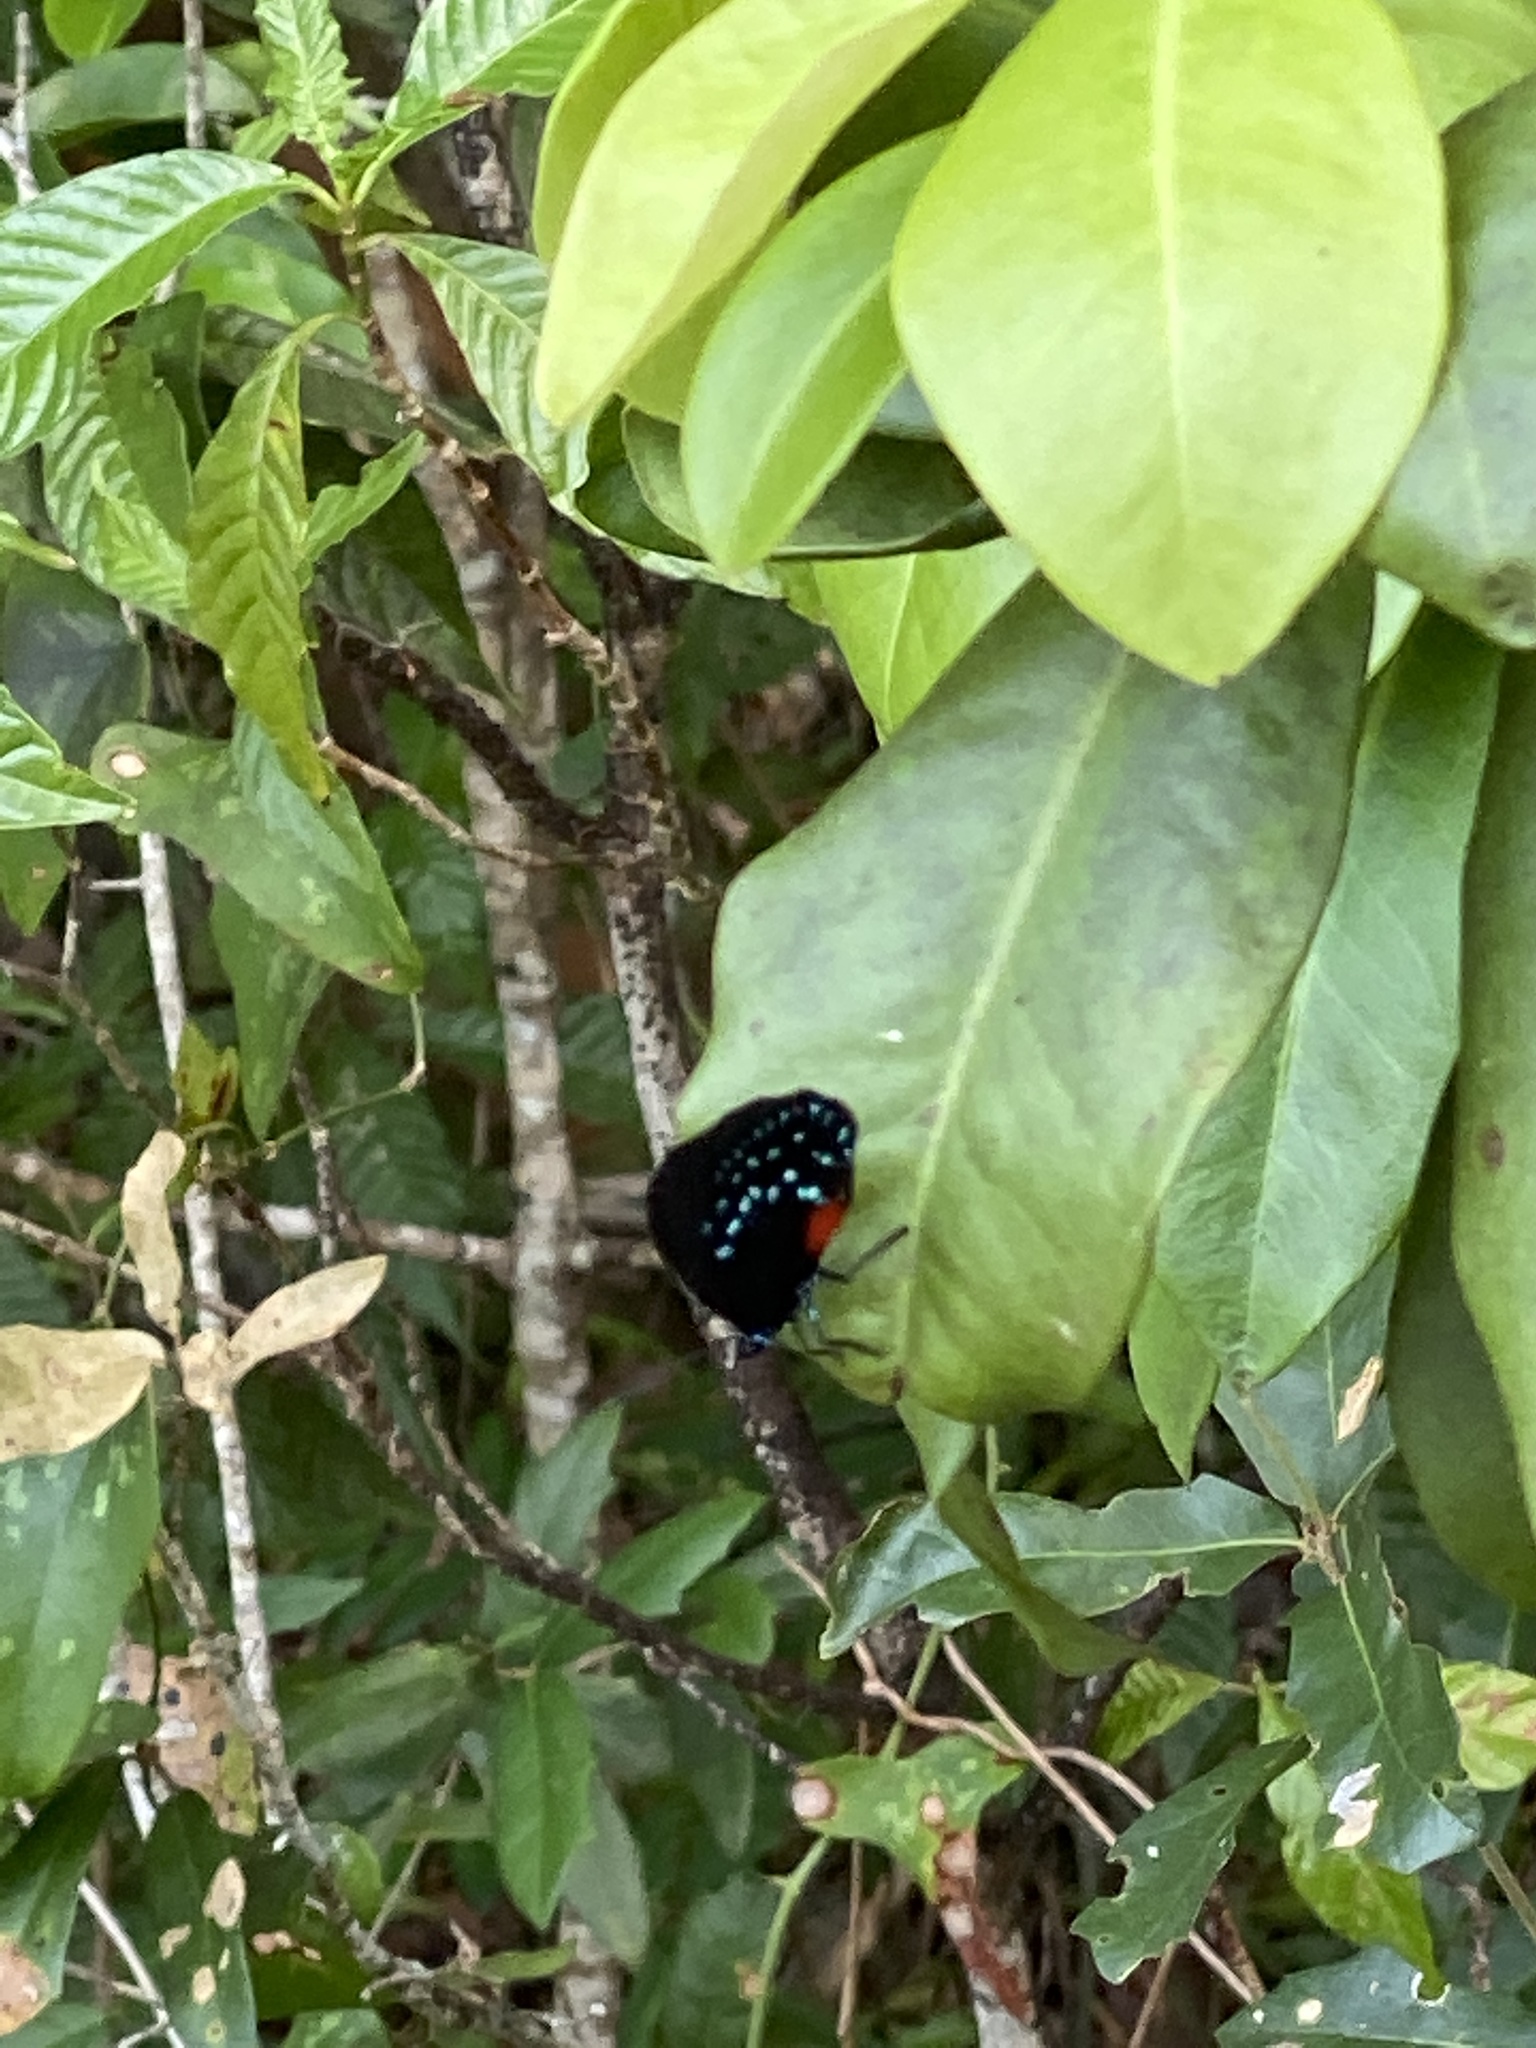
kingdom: Animalia
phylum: Arthropoda
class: Insecta
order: Lepidoptera
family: Lycaenidae
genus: Eumaeus
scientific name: Eumaeus atala
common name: Atala
